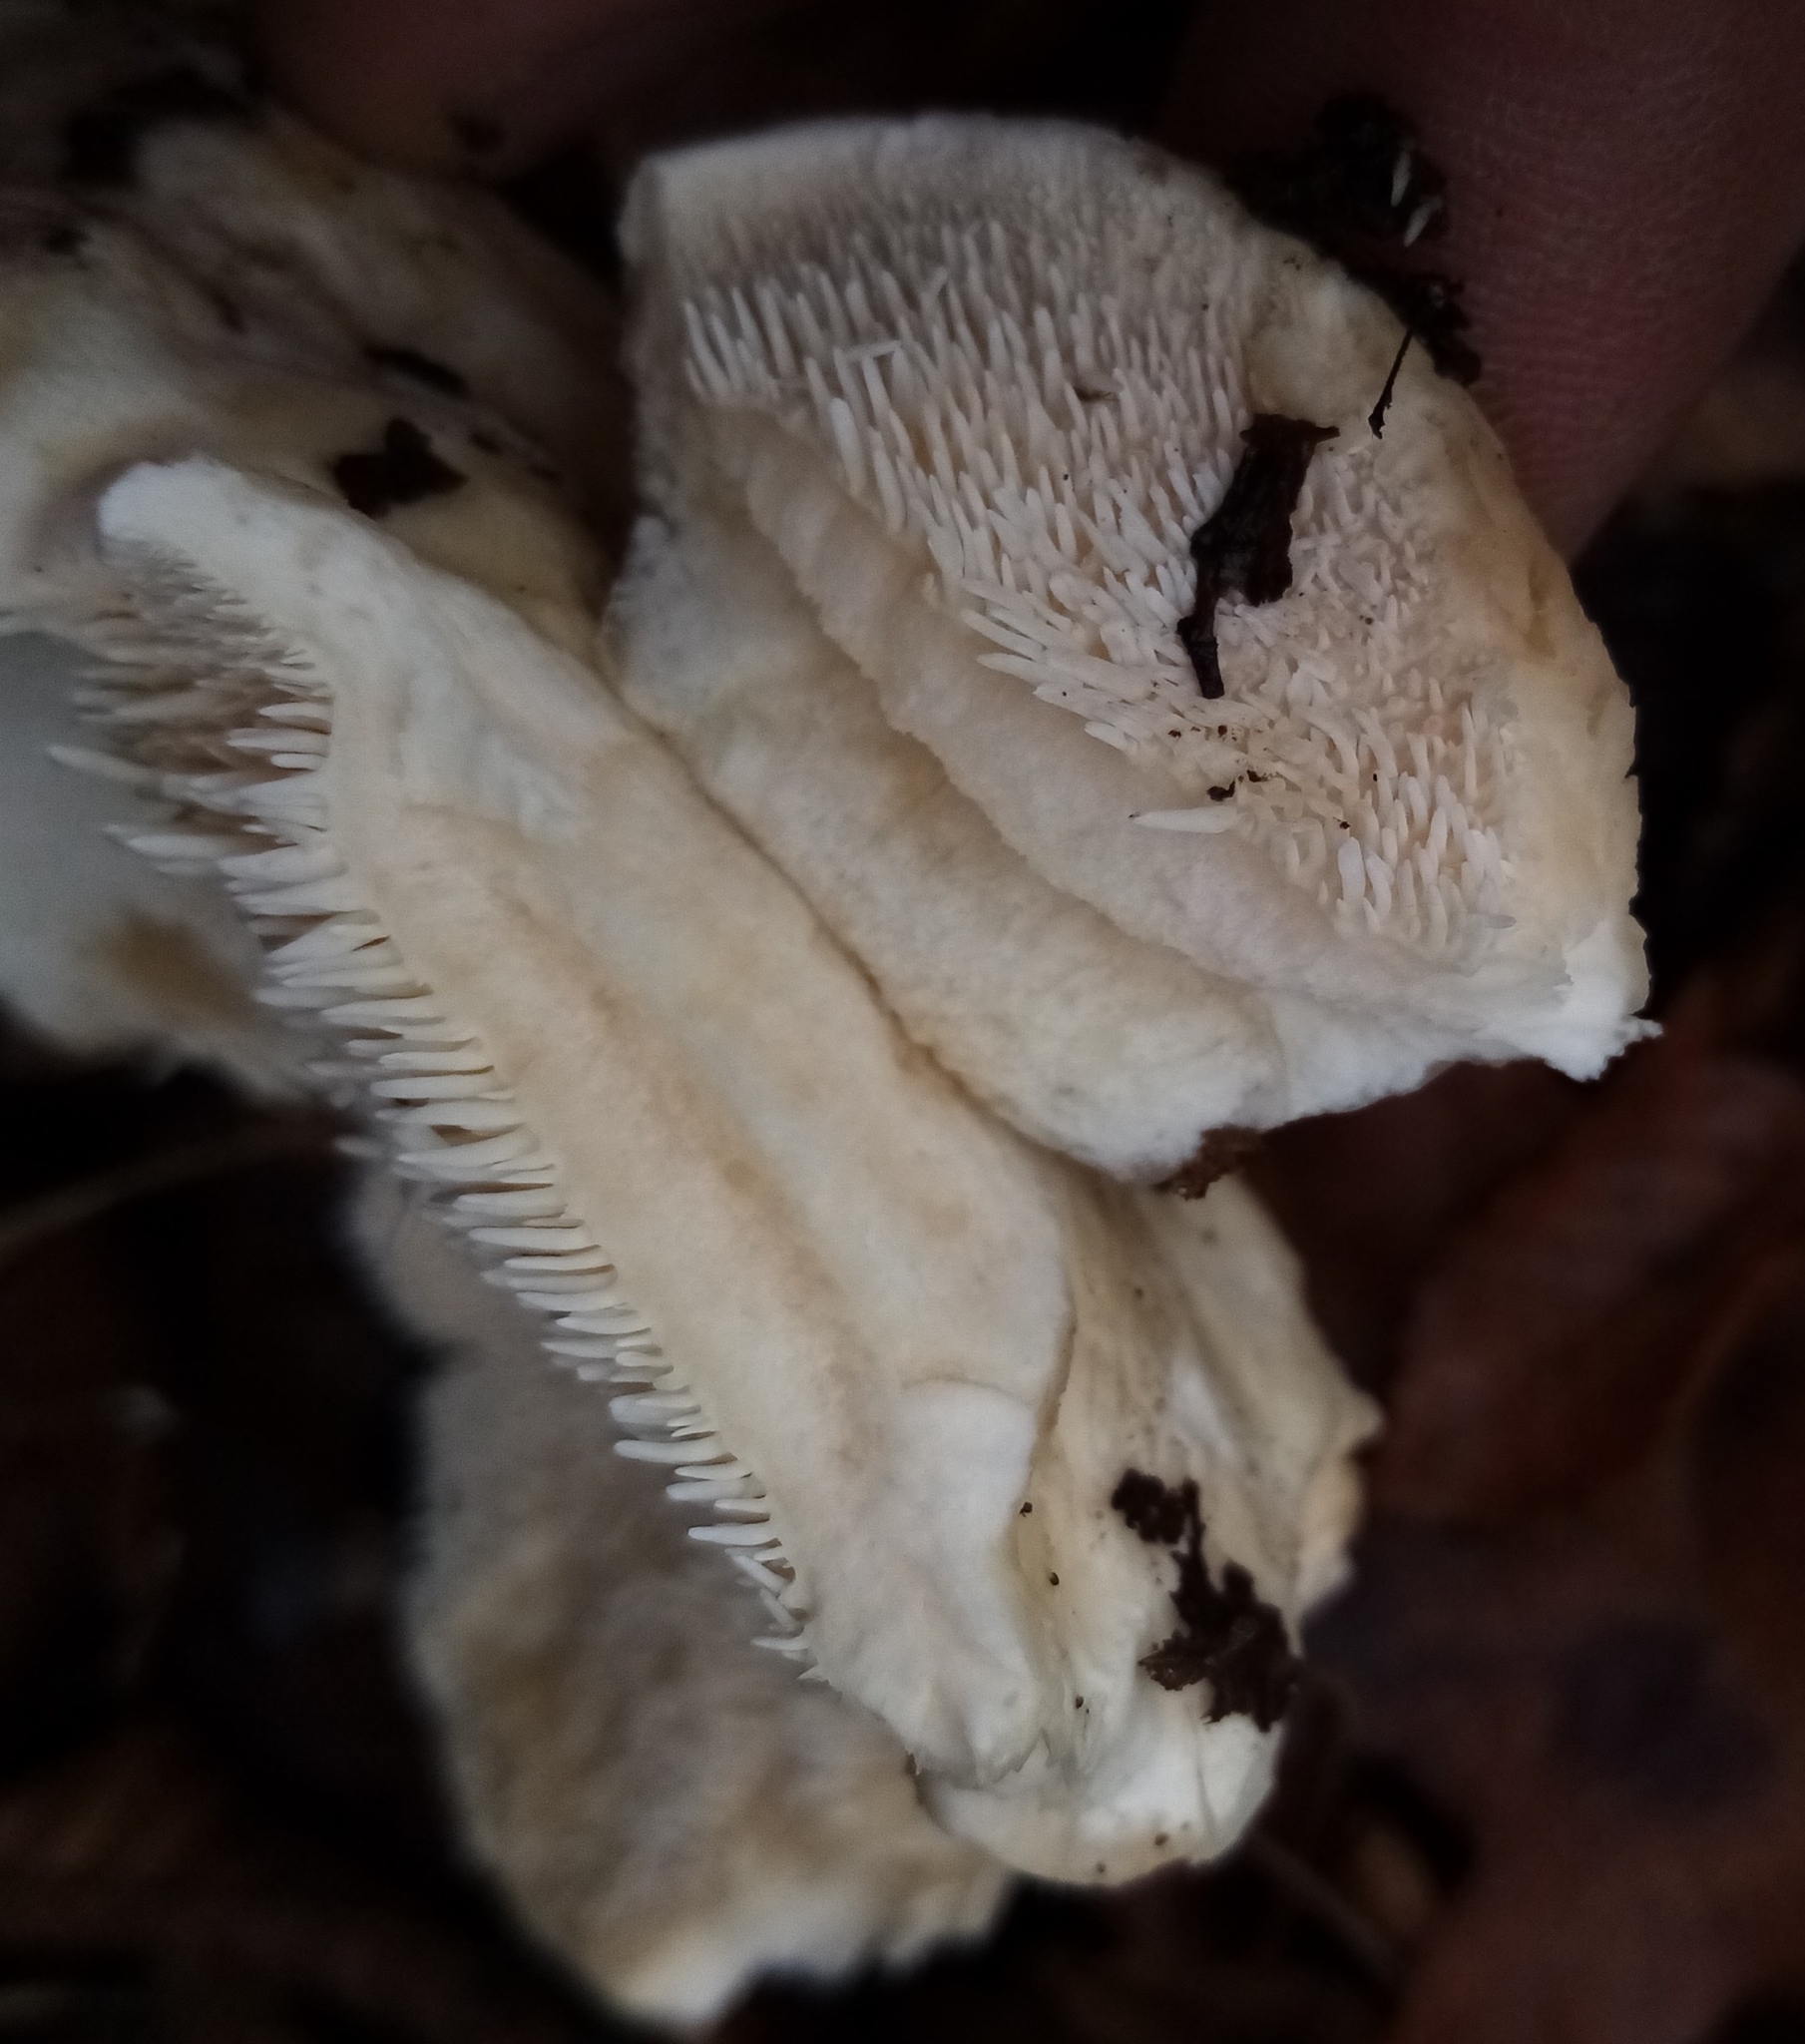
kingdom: Fungi
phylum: Basidiomycota
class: Agaricomycetes
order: Cantharellales
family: Hydnaceae
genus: Hydnum
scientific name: Hydnum repandum
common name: Wood hedgehog
